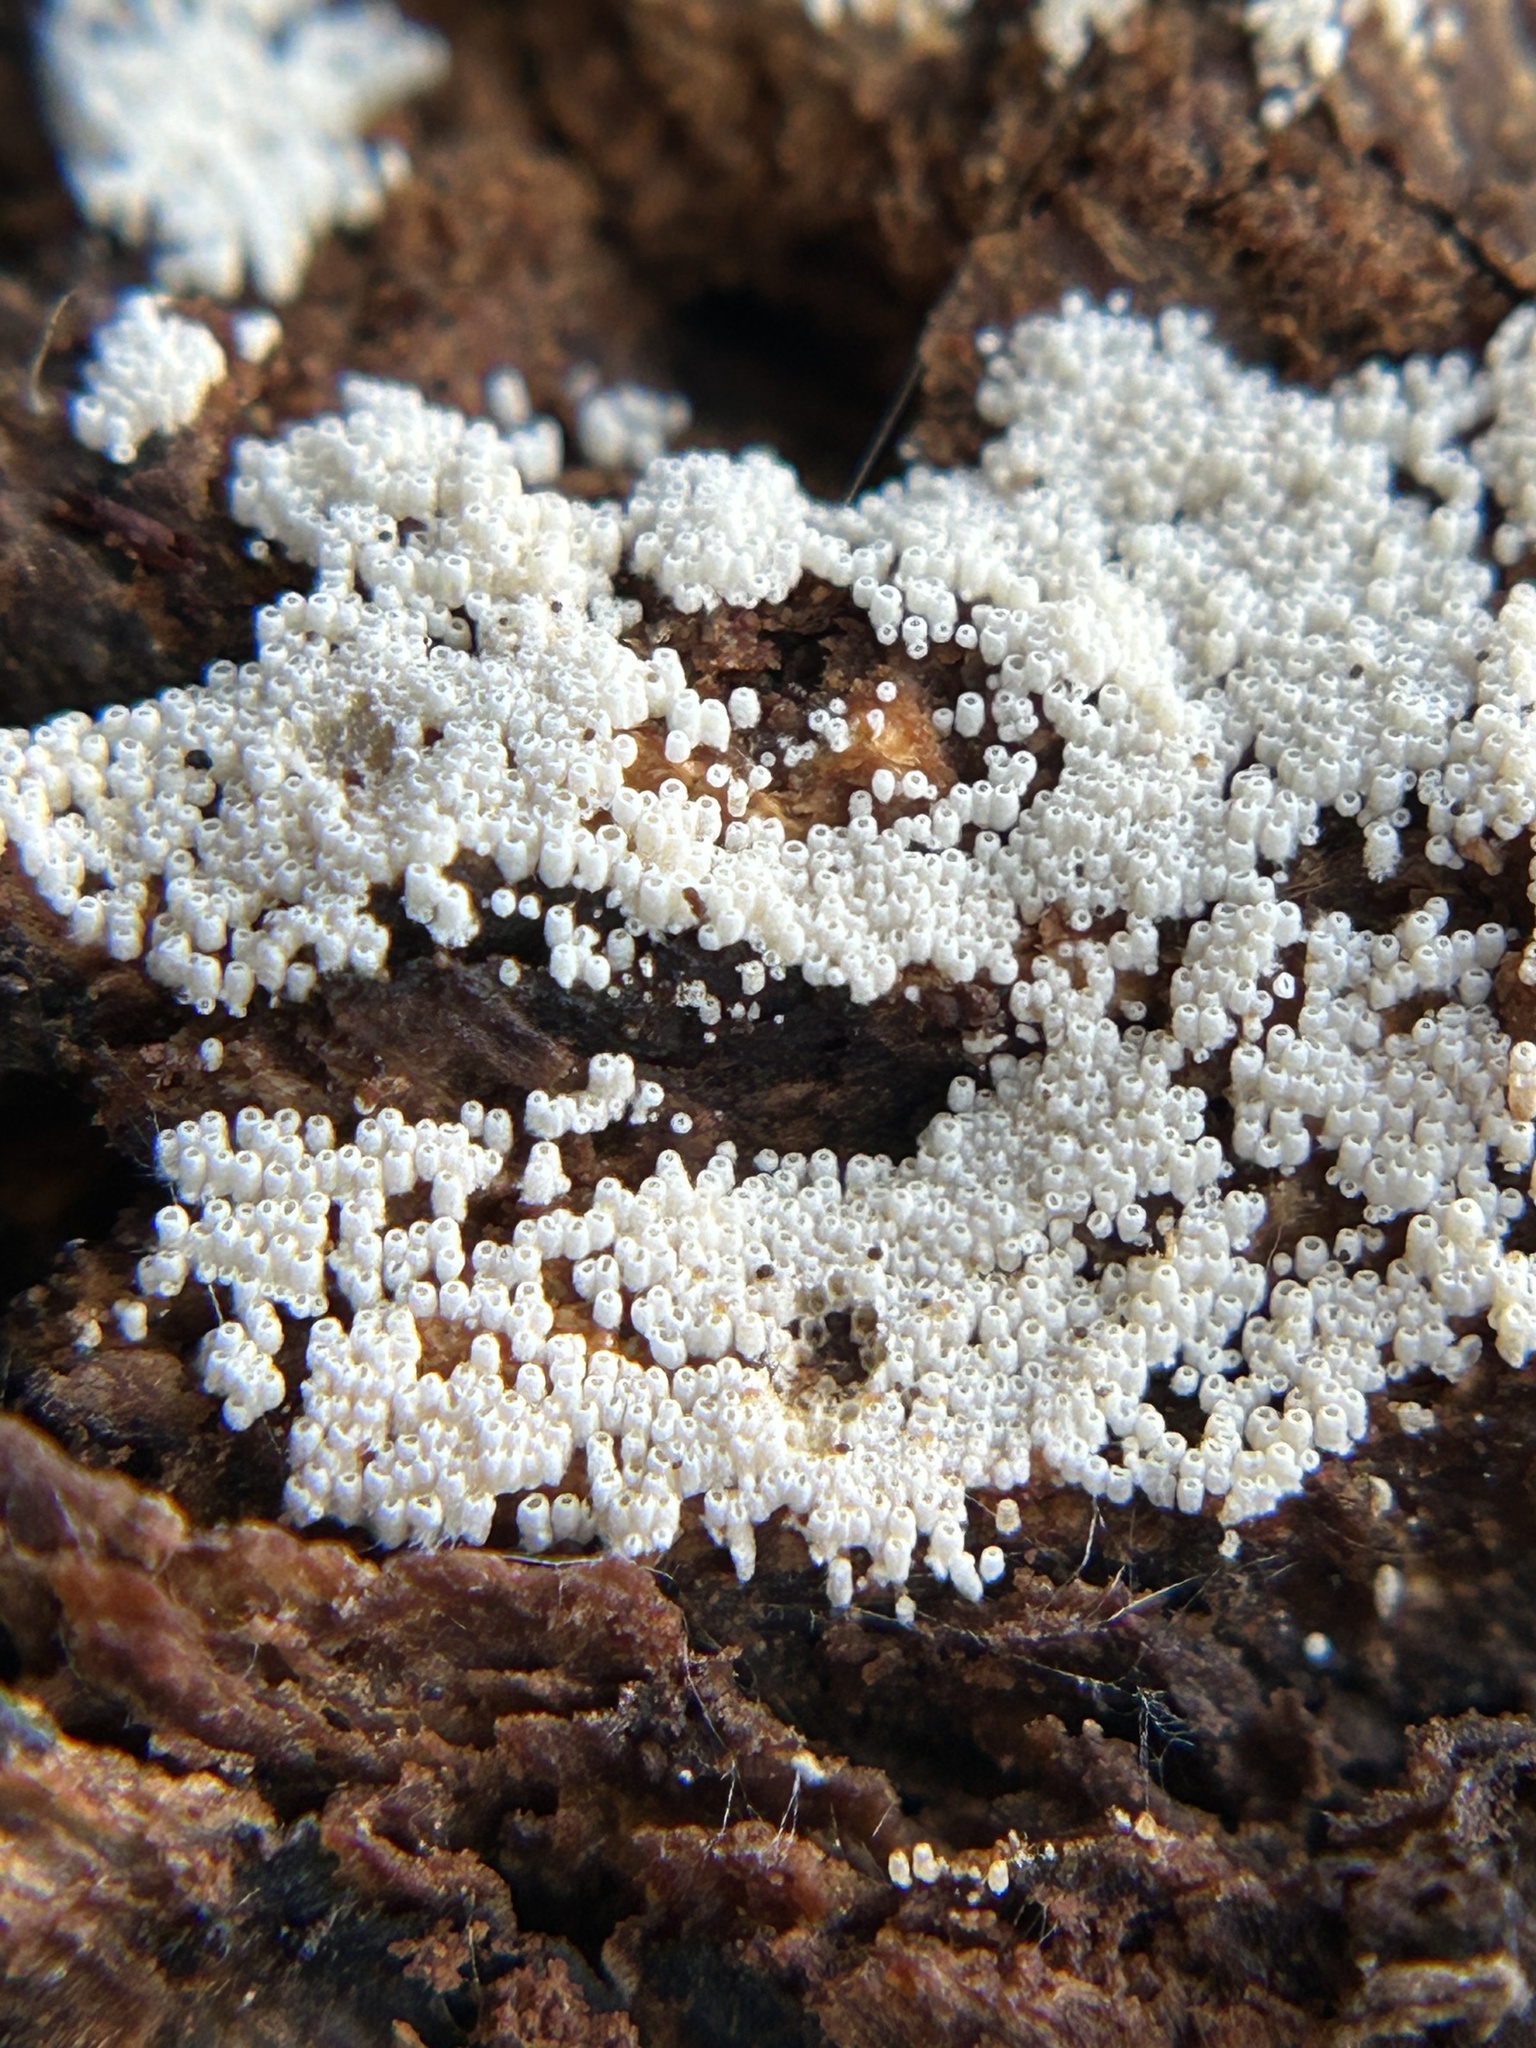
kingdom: Fungi
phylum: Basidiomycota
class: Agaricomycetes
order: Agaricales
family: Marasmiaceae
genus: Henningsomyces
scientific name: Henningsomyces candidus
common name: White tubelet
